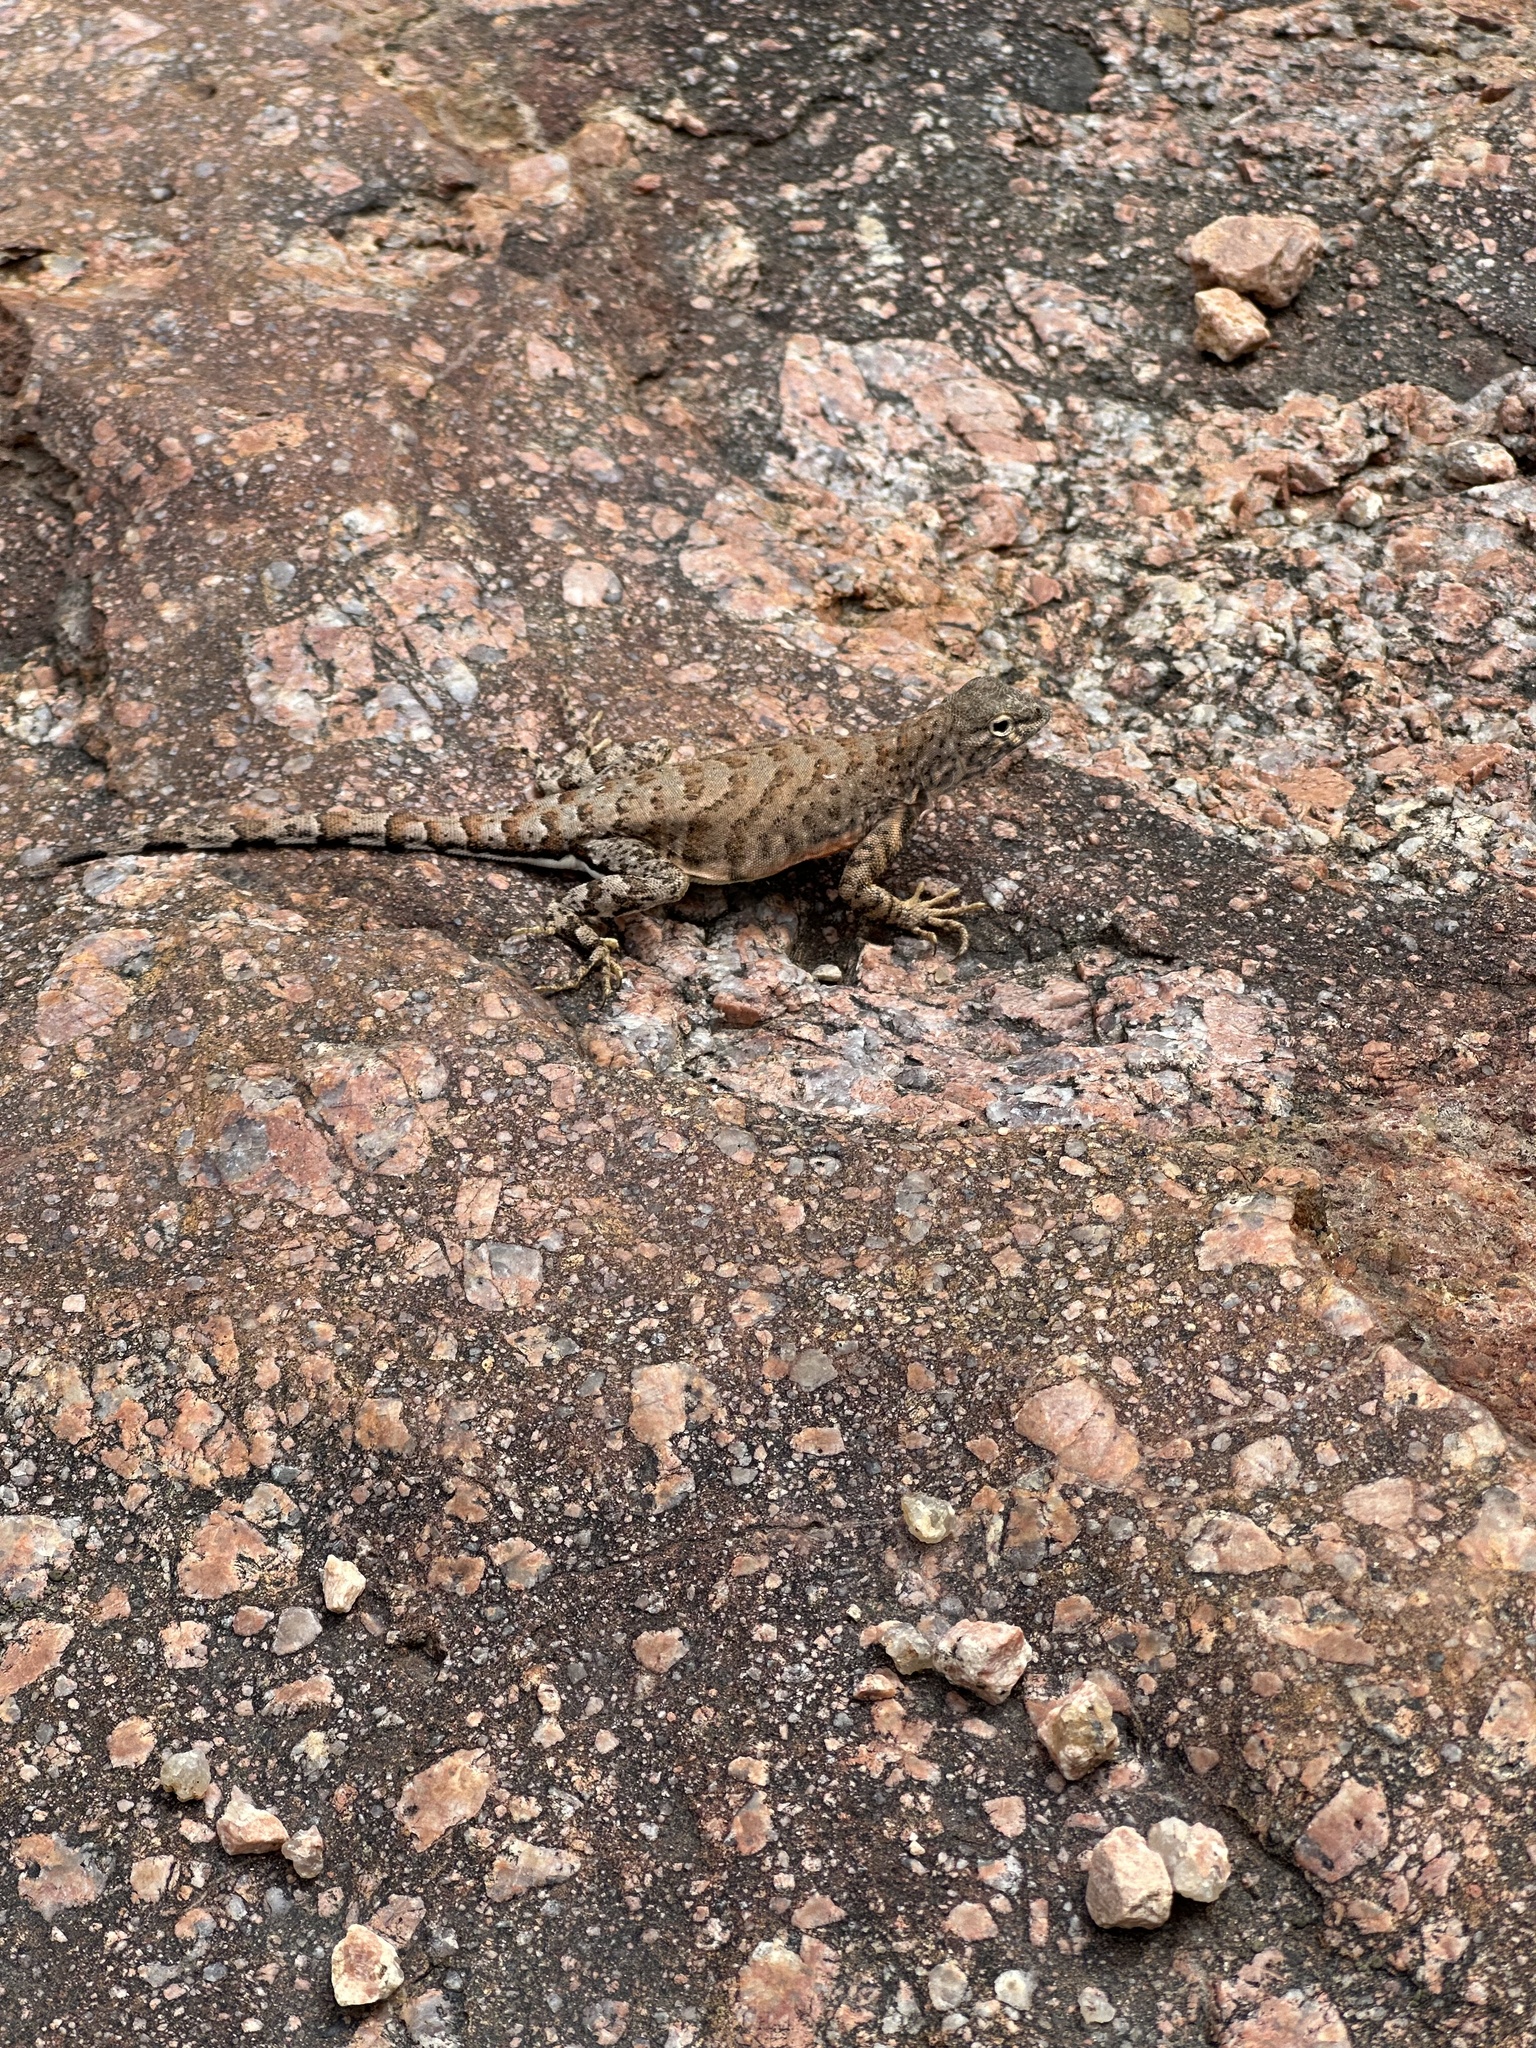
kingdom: Animalia
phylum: Chordata
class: Squamata
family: Phrynosomatidae
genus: Cophosaurus
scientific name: Cophosaurus texanus
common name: Greater earless lizard
